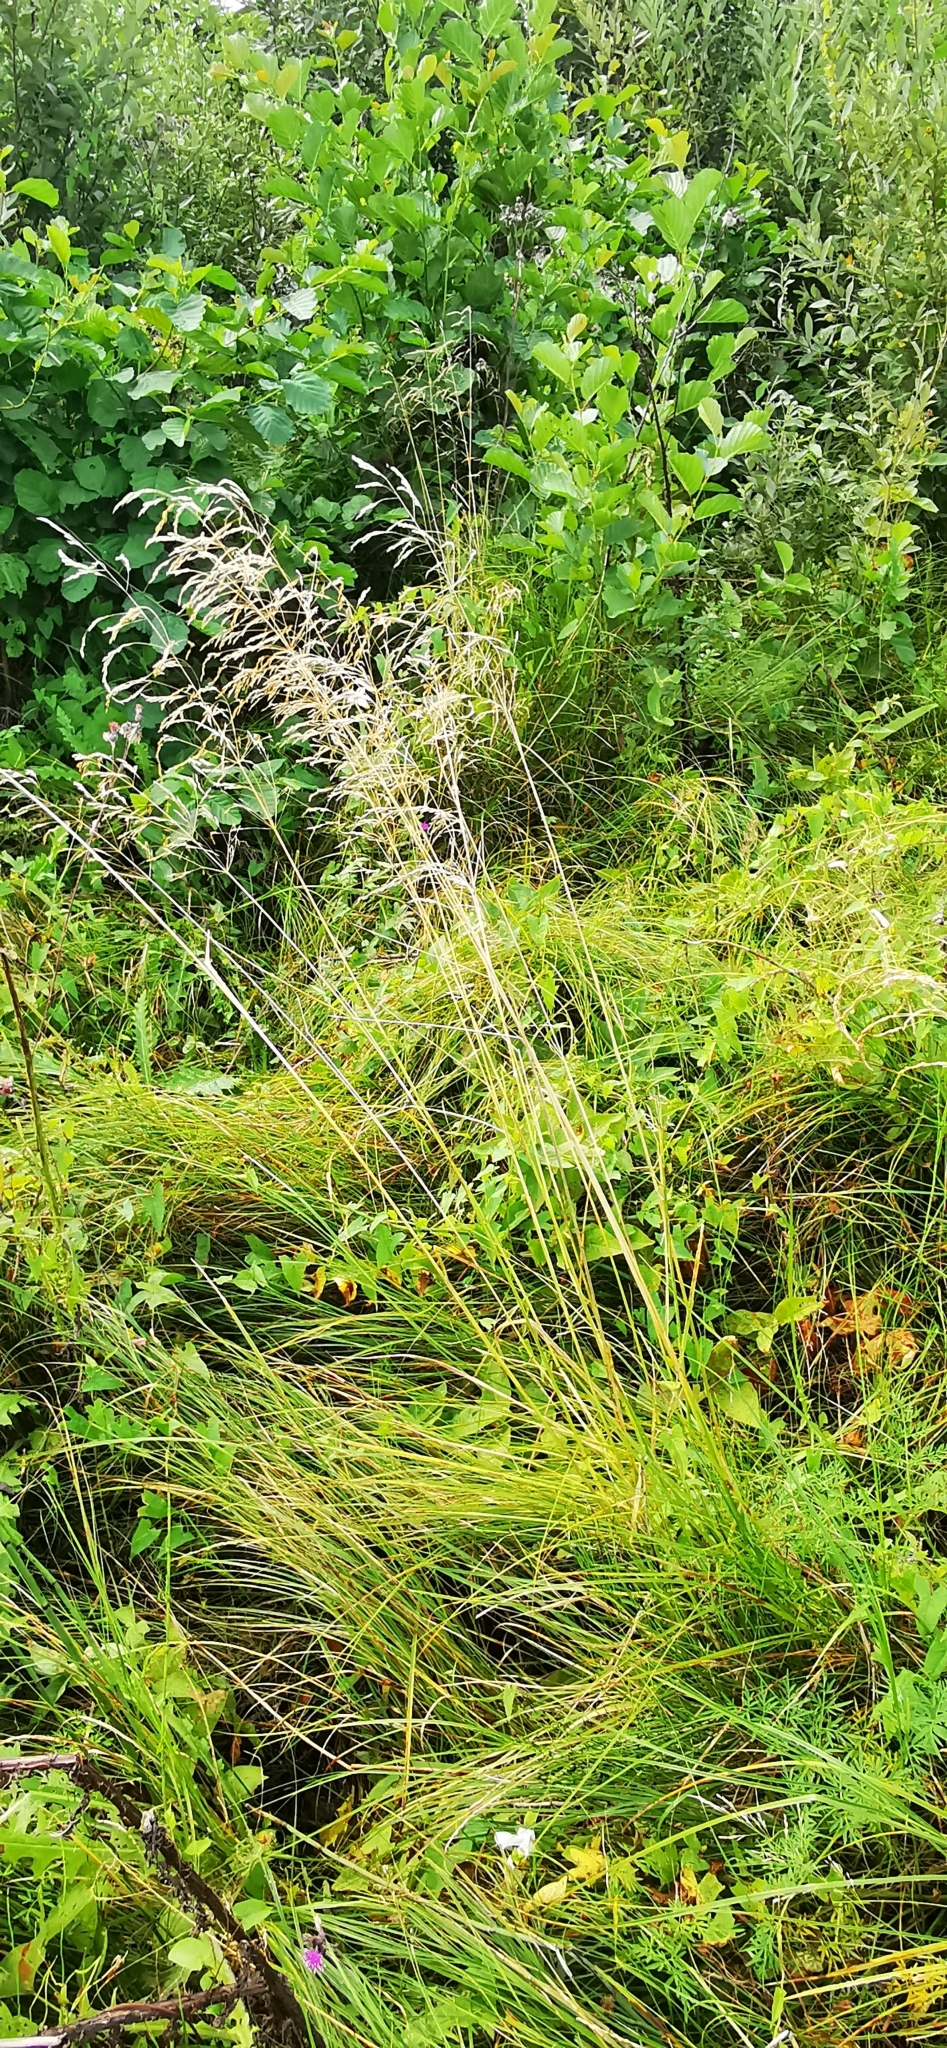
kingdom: Plantae
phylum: Tracheophyta
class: Liliopsida
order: Poales
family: Poaceae
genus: Deschampsia
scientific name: Deschampsia cespitosa
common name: Tufted hair-grass
